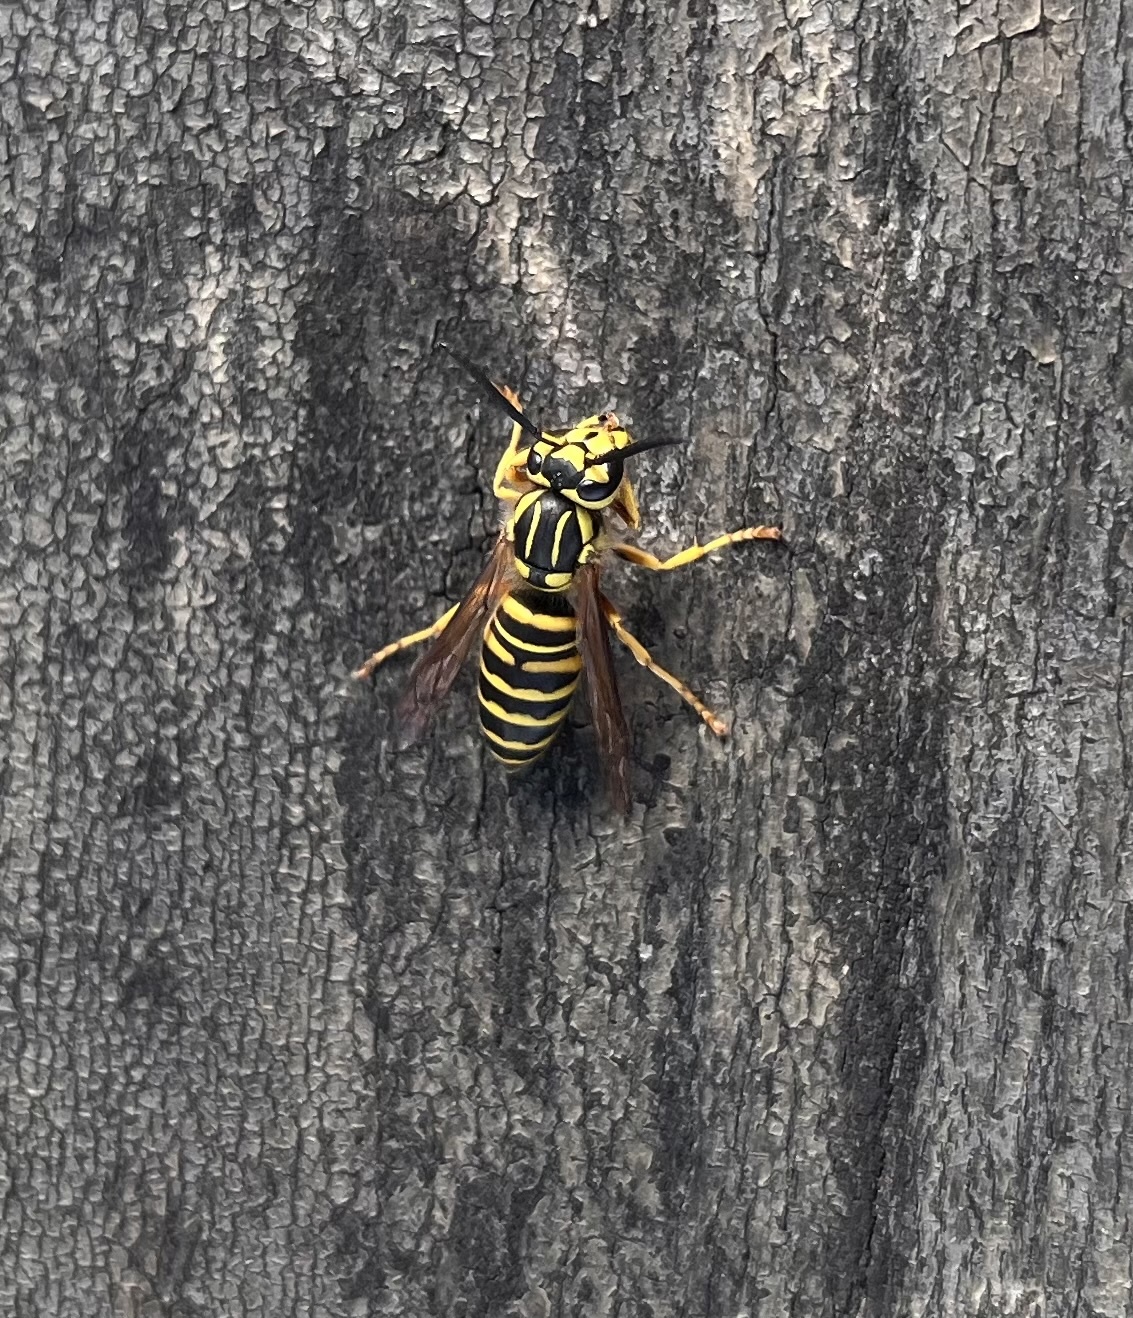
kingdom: Animalia
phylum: Arthropoda
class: Insecta
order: Hymenoptera
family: Vespidae
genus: Vespula
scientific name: Vespula squamosa
